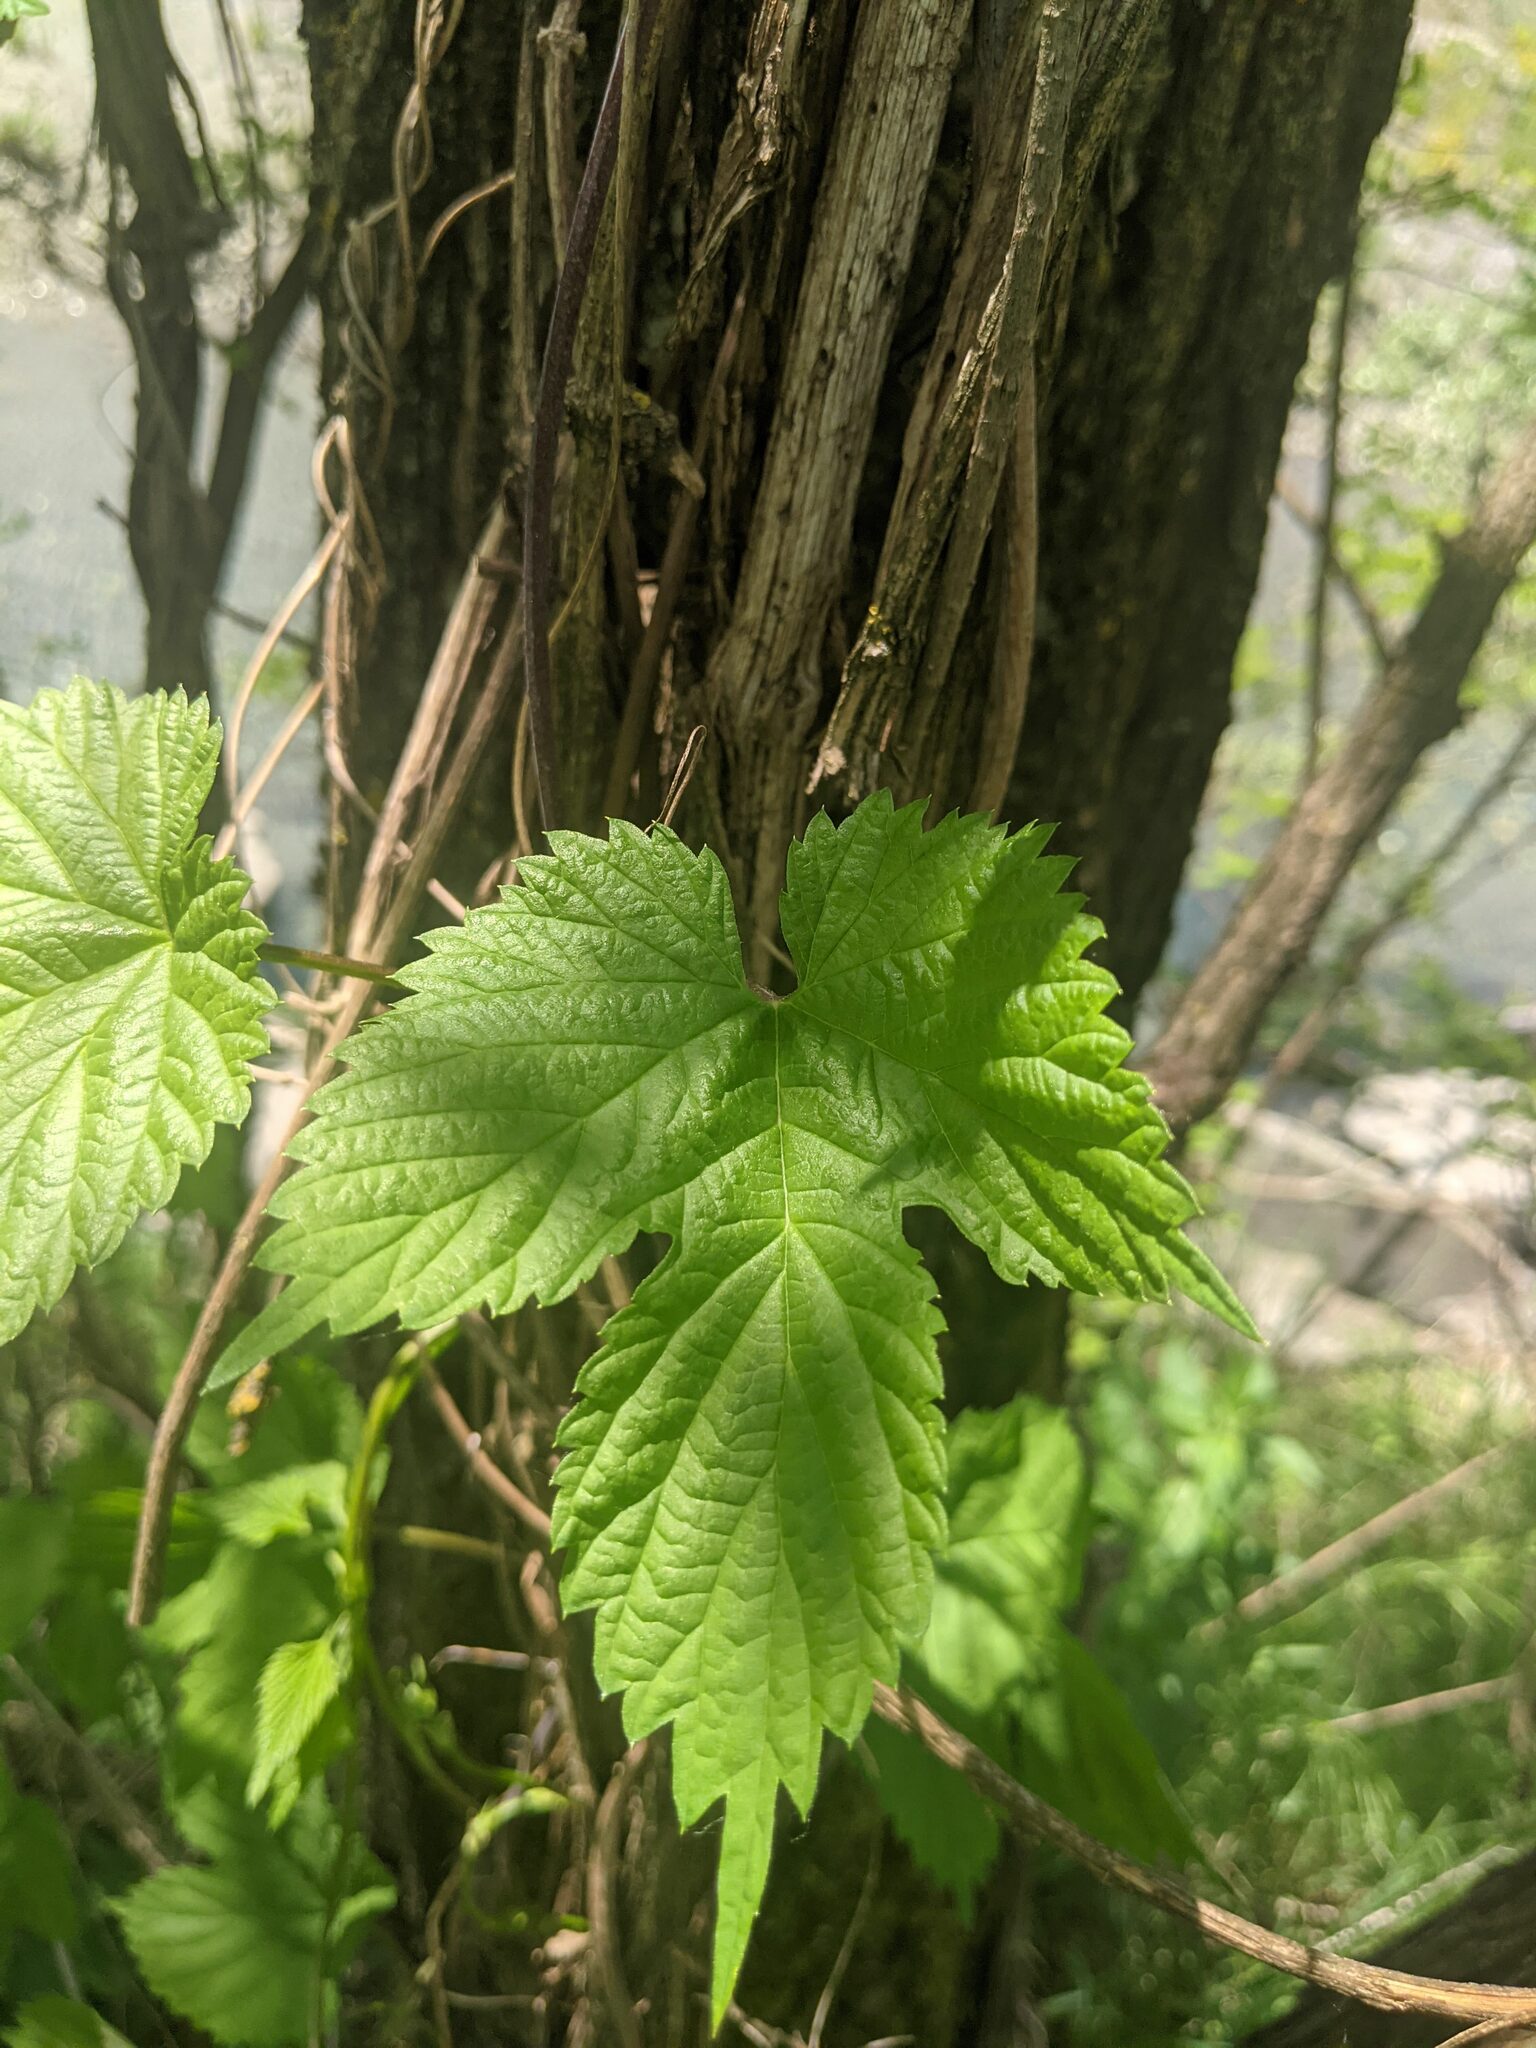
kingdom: Plantae
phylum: Tracheophyta
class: Magnoliopsida
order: Rosales
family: Cannabaceae
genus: Humulus
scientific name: Humulus lupulus
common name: Hop
